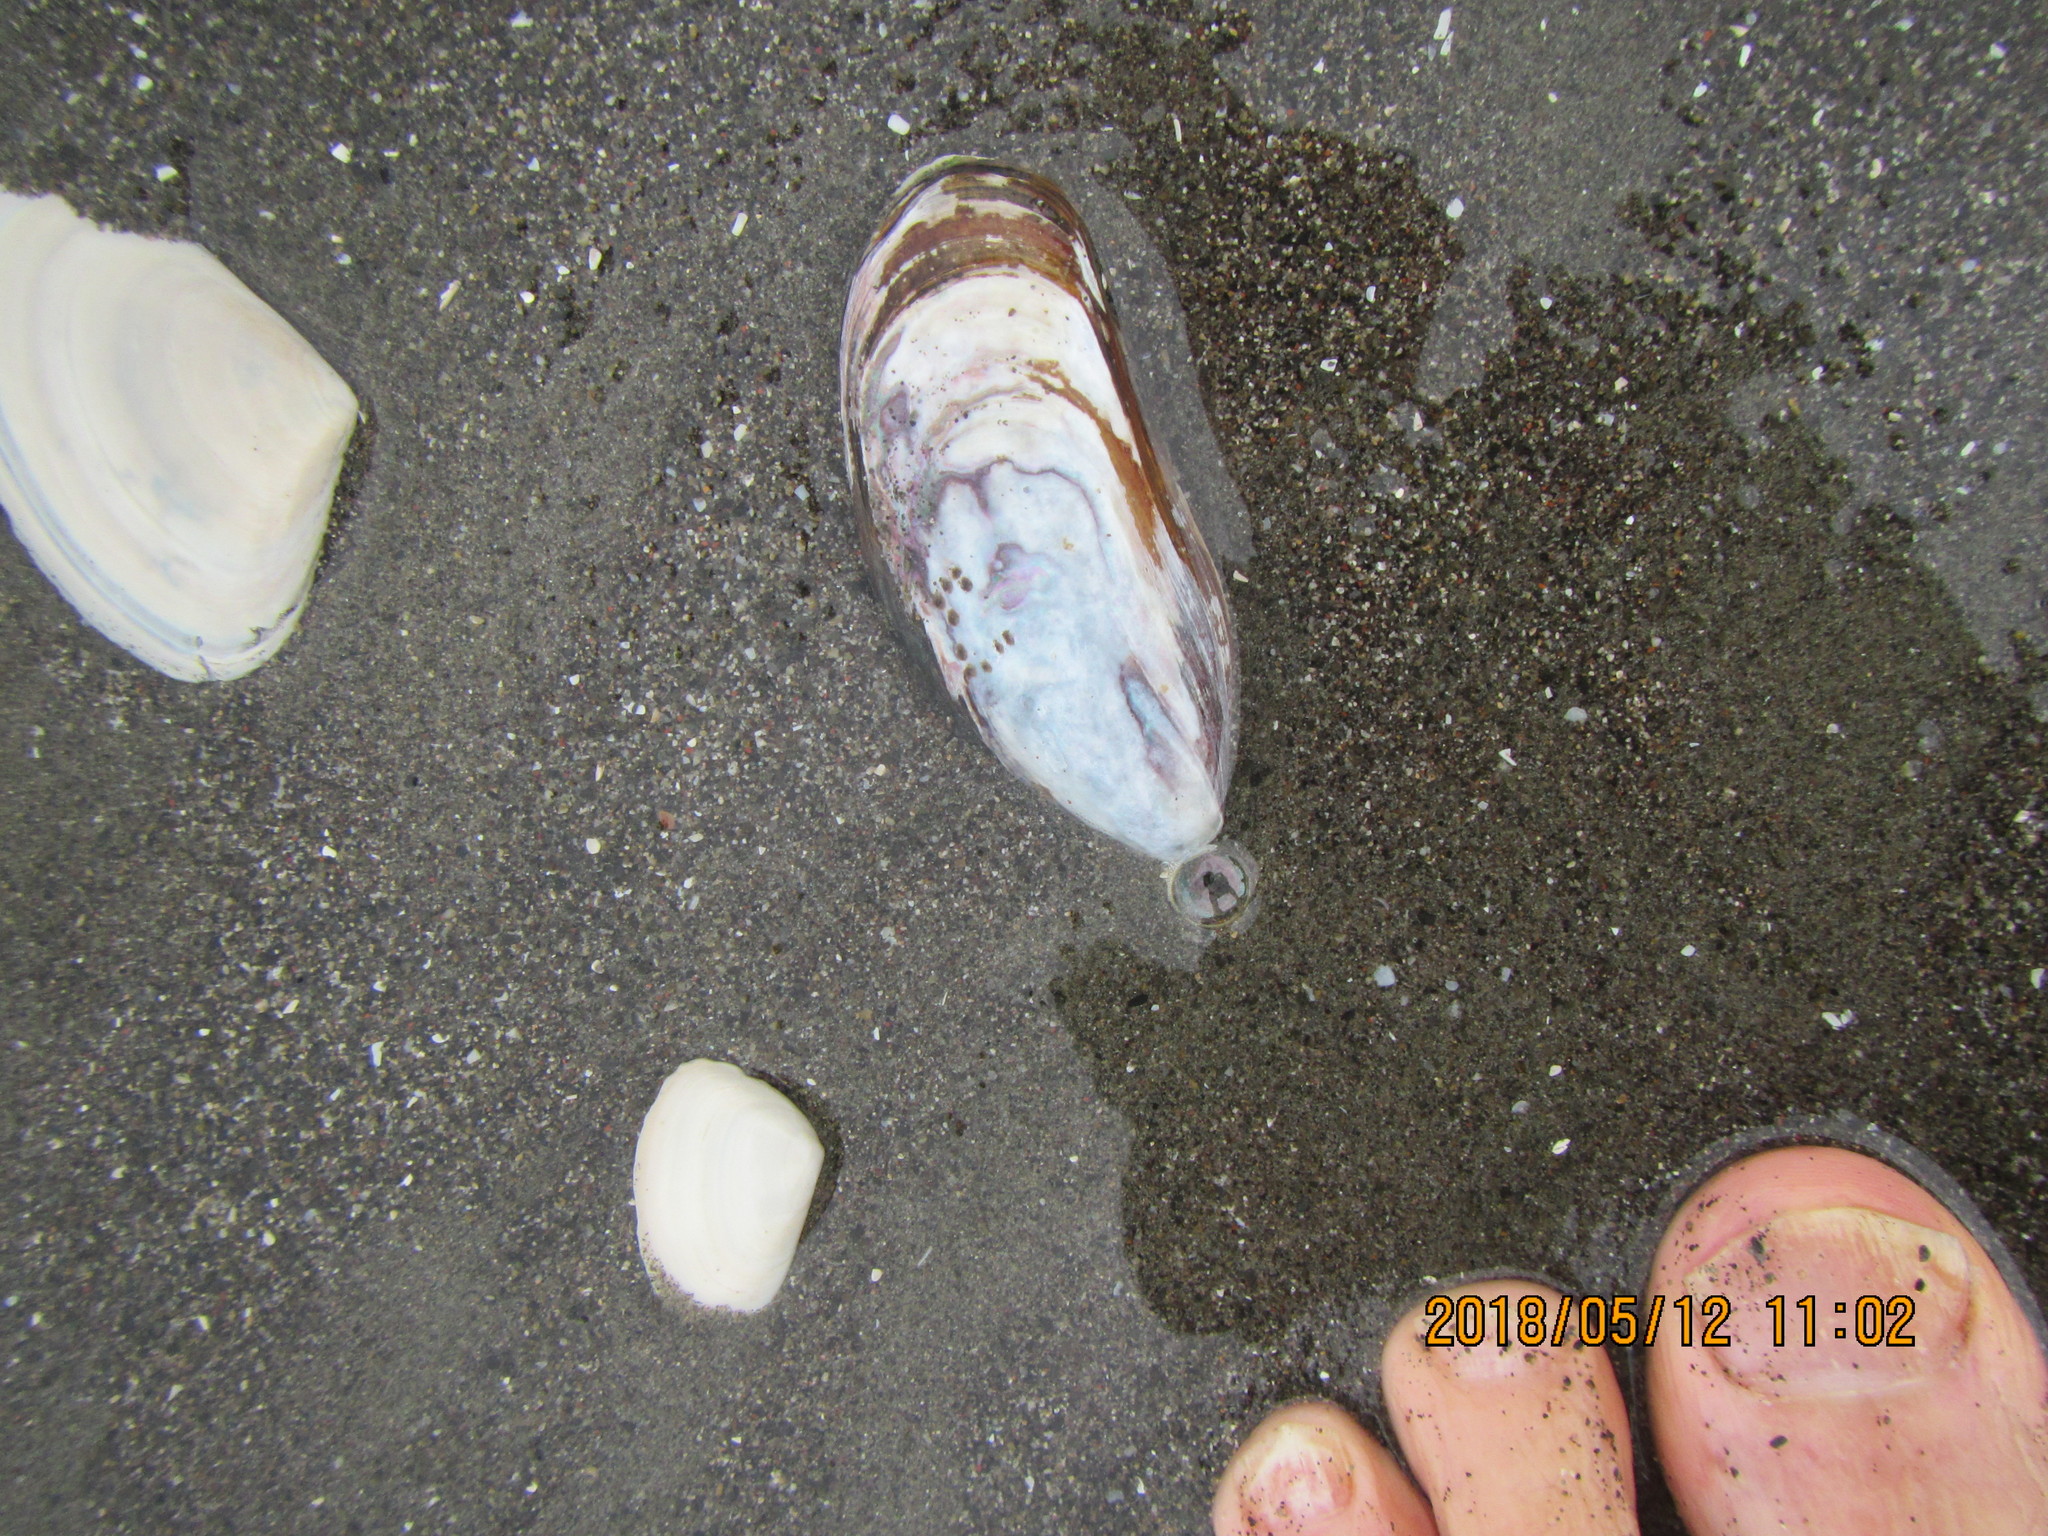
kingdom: Animalia
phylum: Mollusca
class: Bivalvia
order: Mytilida
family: Mytilidae
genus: Perna
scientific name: Perna canaliculus
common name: New zealand greenshelltm
